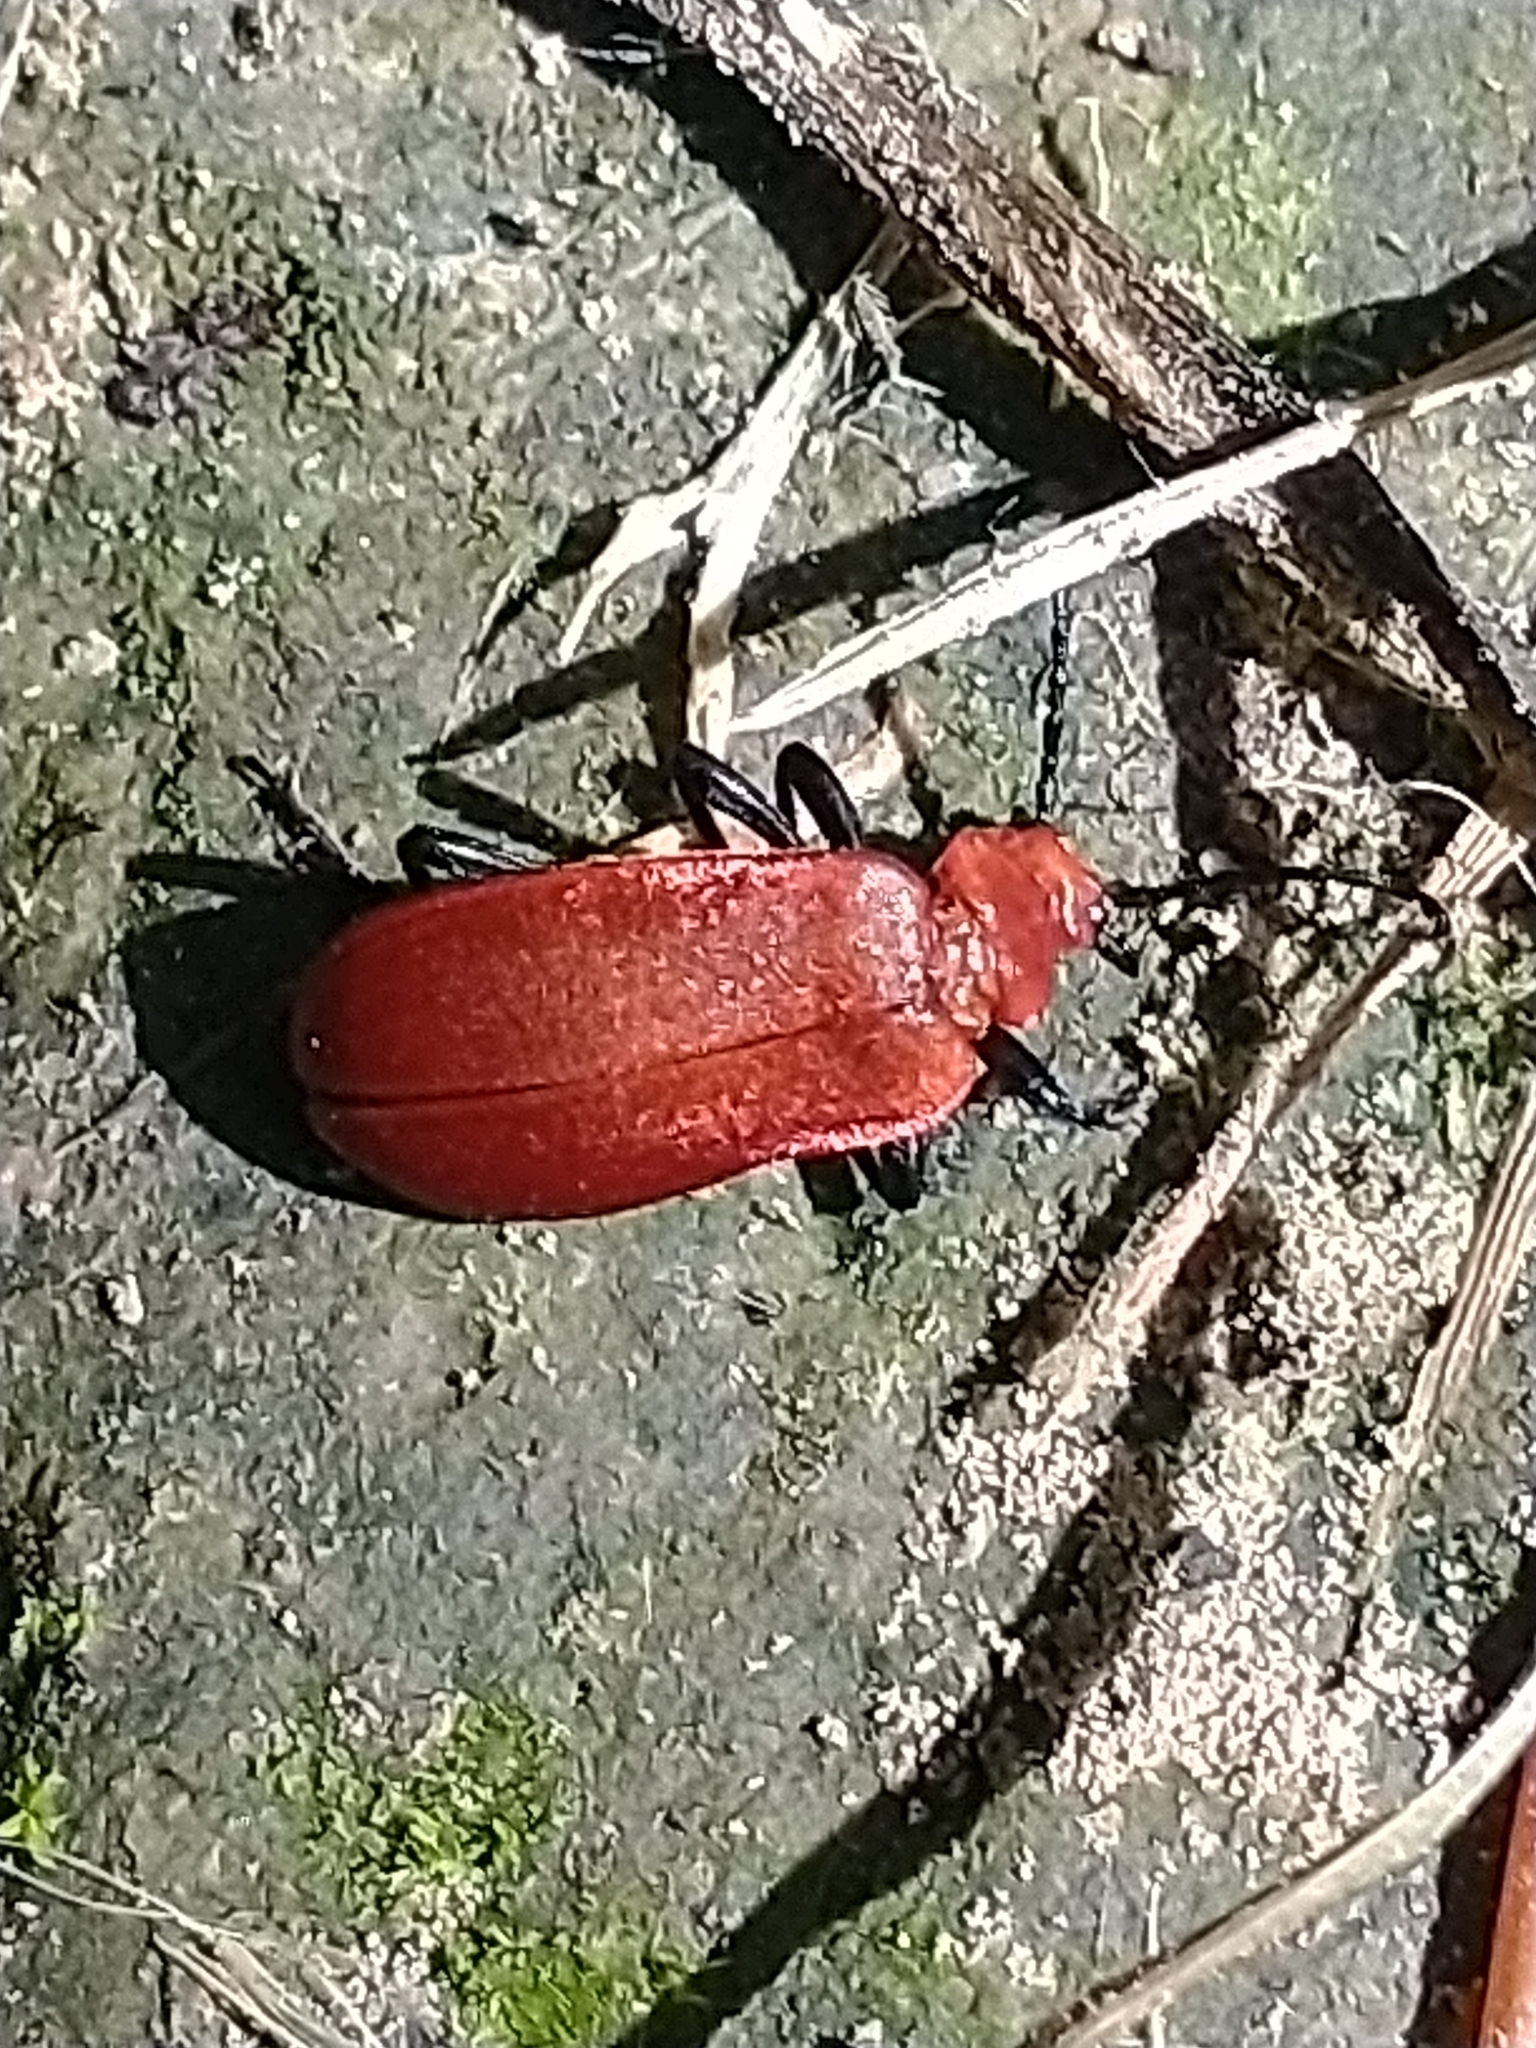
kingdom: Animalia
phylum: Arthropoda
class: Insecta
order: Coleoptera
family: Pyrochroidae
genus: Pyrochroa
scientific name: Pyrochroa serraticornis
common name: Red-headed cardinal beetle
